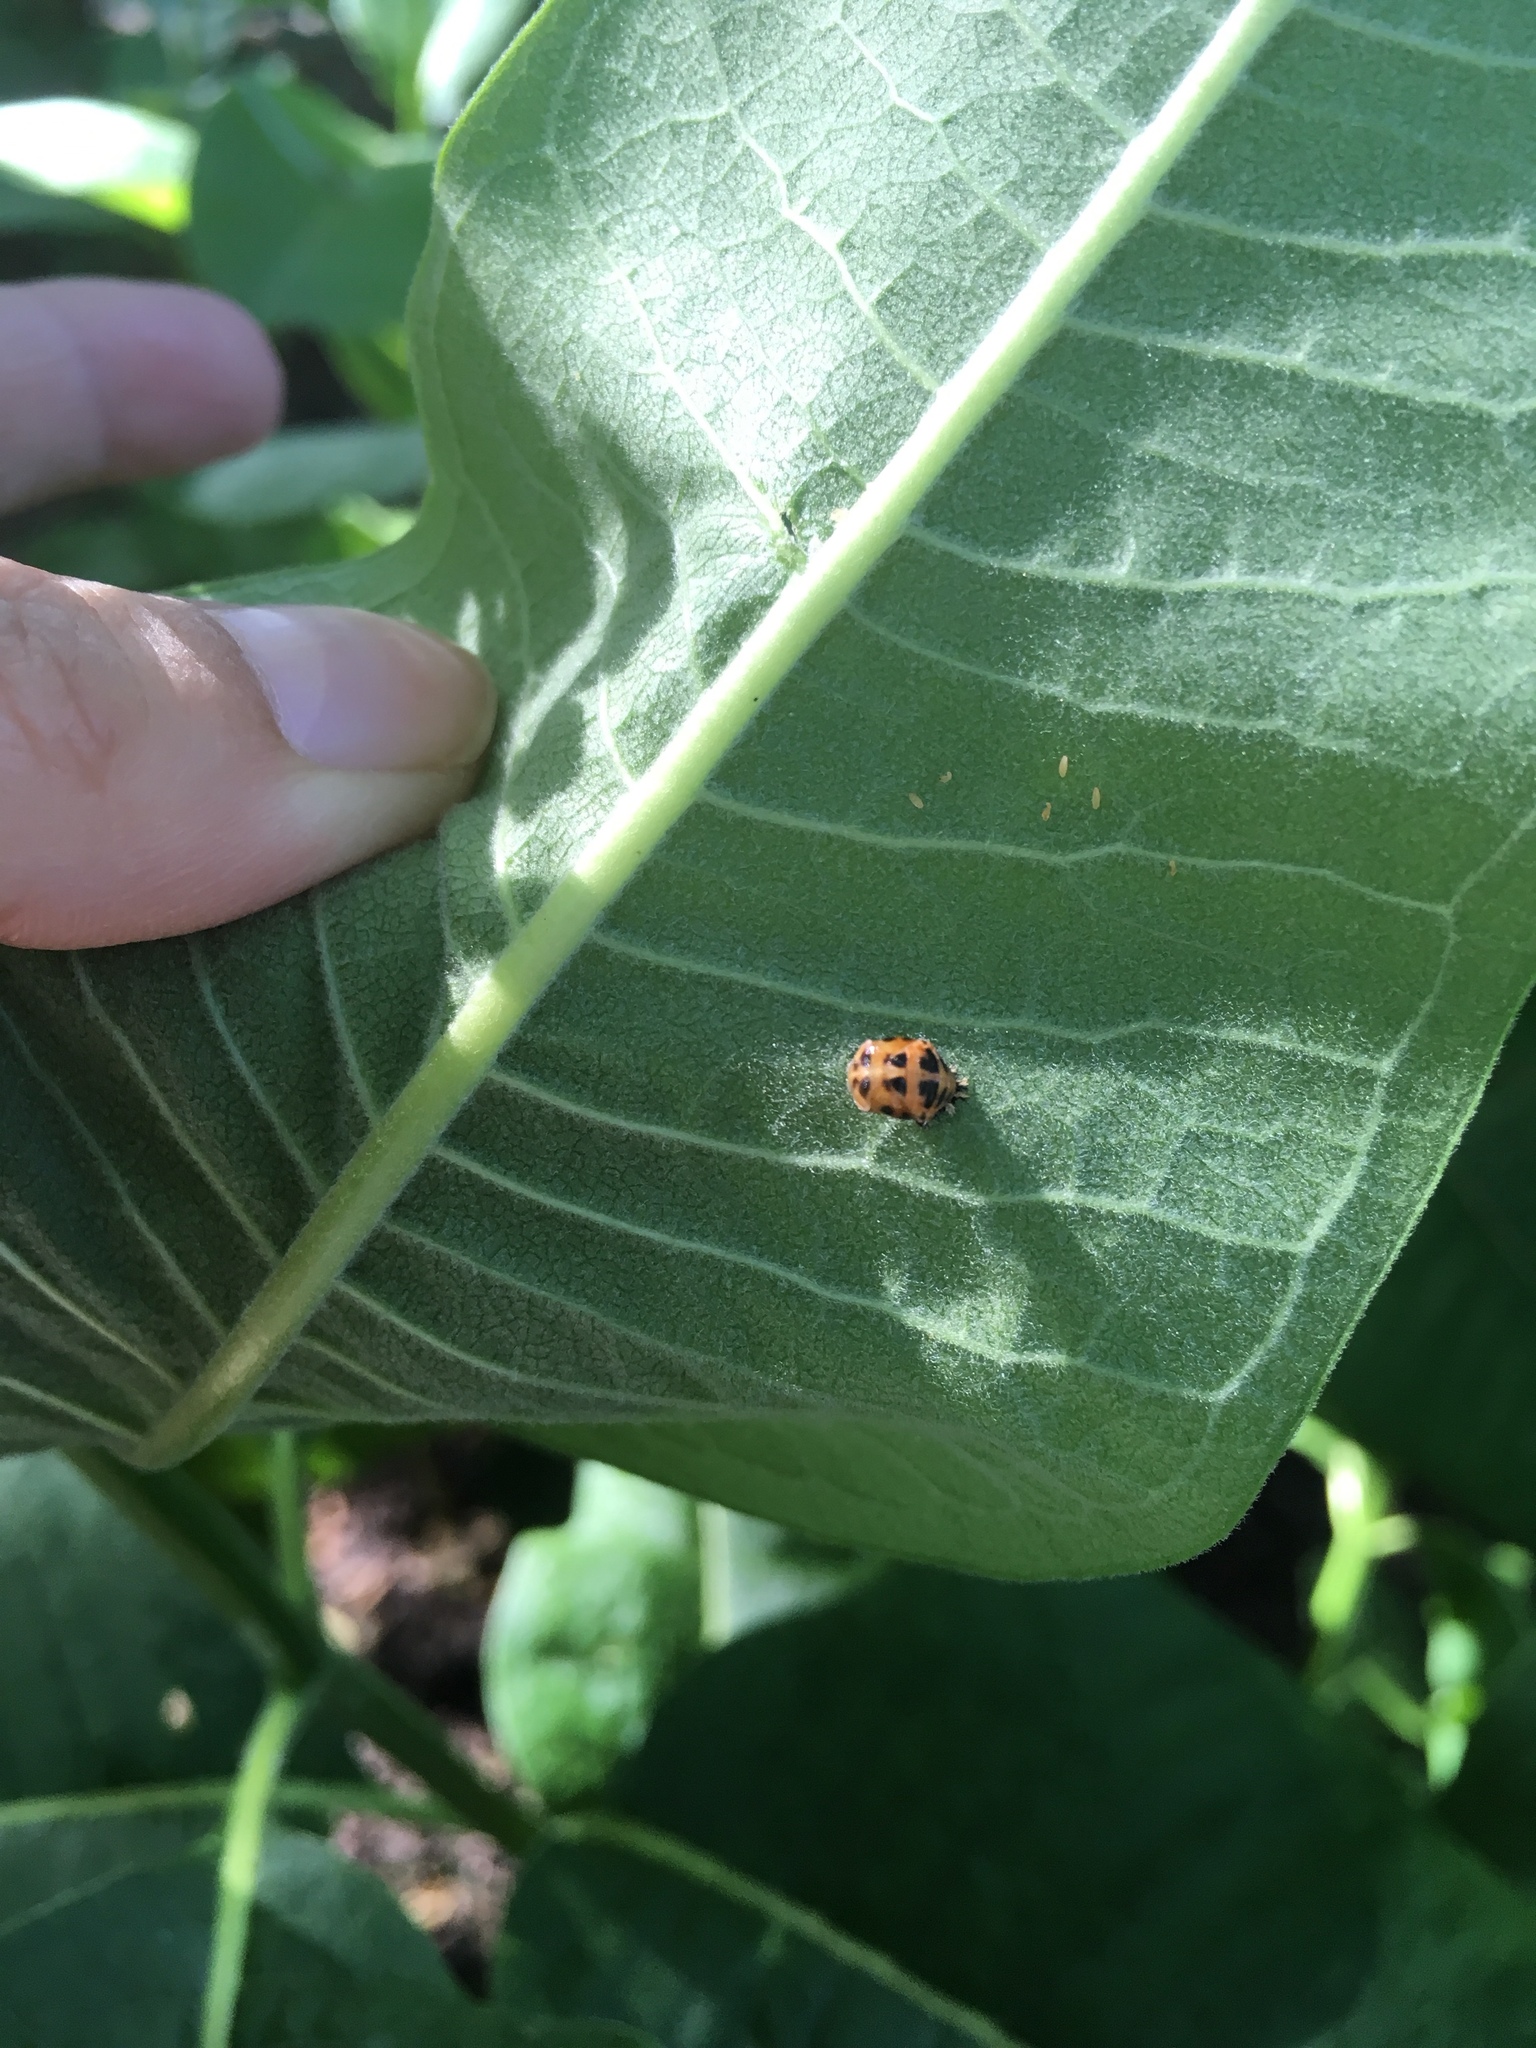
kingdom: Animalia
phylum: Arthropoda
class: Insecta
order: Coleoptera
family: Coccinellidae
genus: Harmonia
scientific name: Harmonia axyridis
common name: Harlequin ladybird
